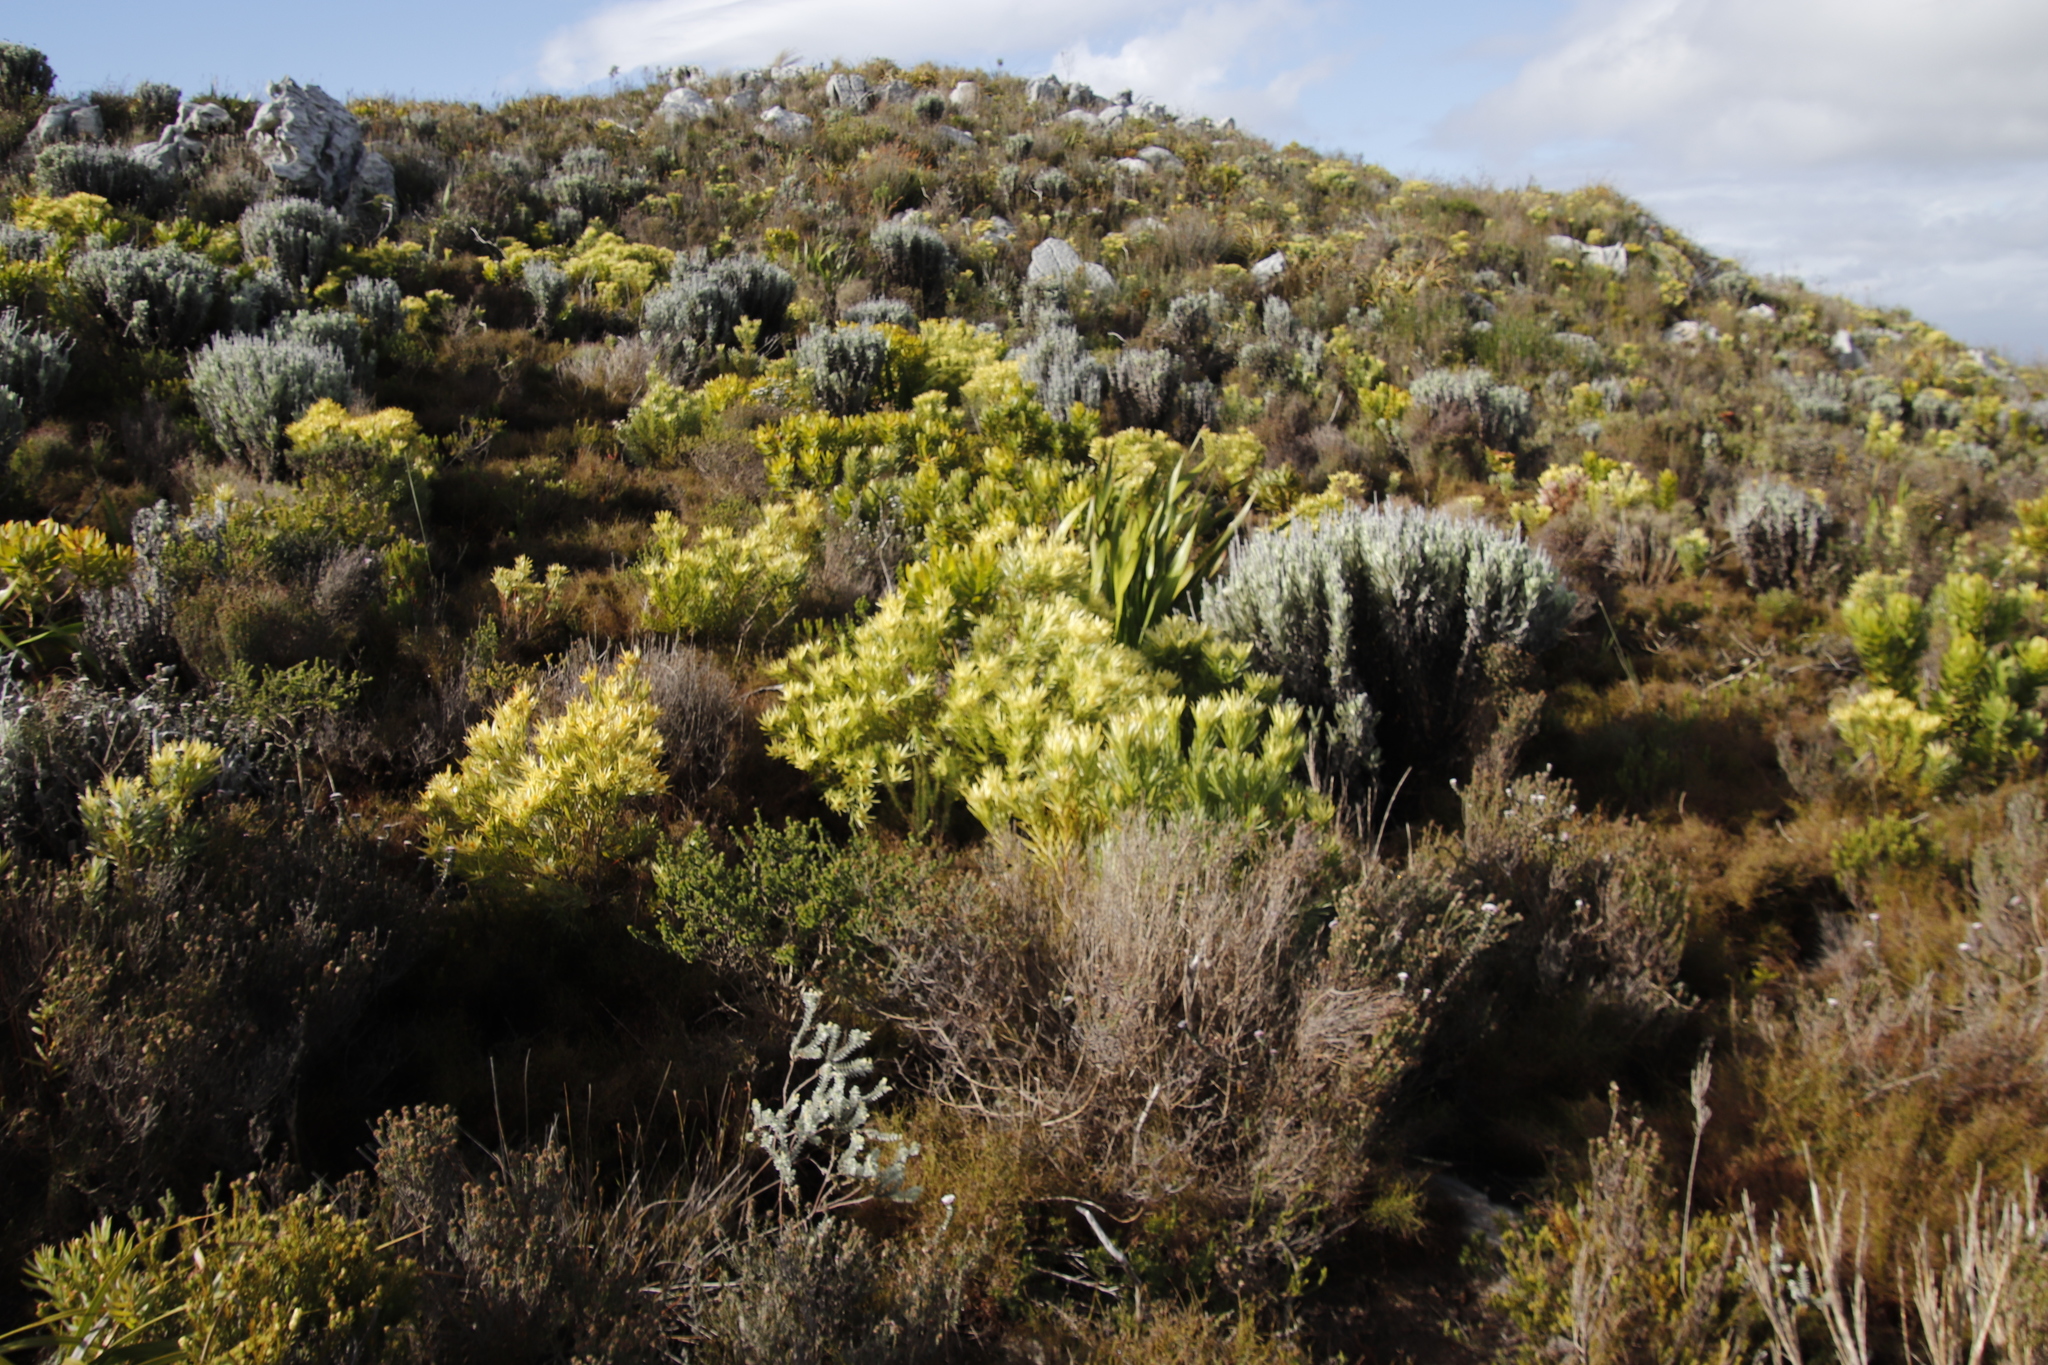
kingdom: Plantae
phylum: Tracheophyta
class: Magnoliopsida
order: Proteales
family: Proteaceae
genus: Leucadendron
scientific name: Leucadendron xanthoconus
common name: Sickle-leaf conebush
